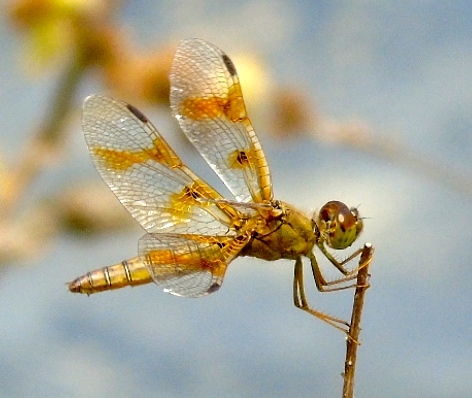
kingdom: Animalia
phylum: Arthropoda
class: Insecta
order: Odonata
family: Libellulidae
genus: Perithemis
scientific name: Perithemis
